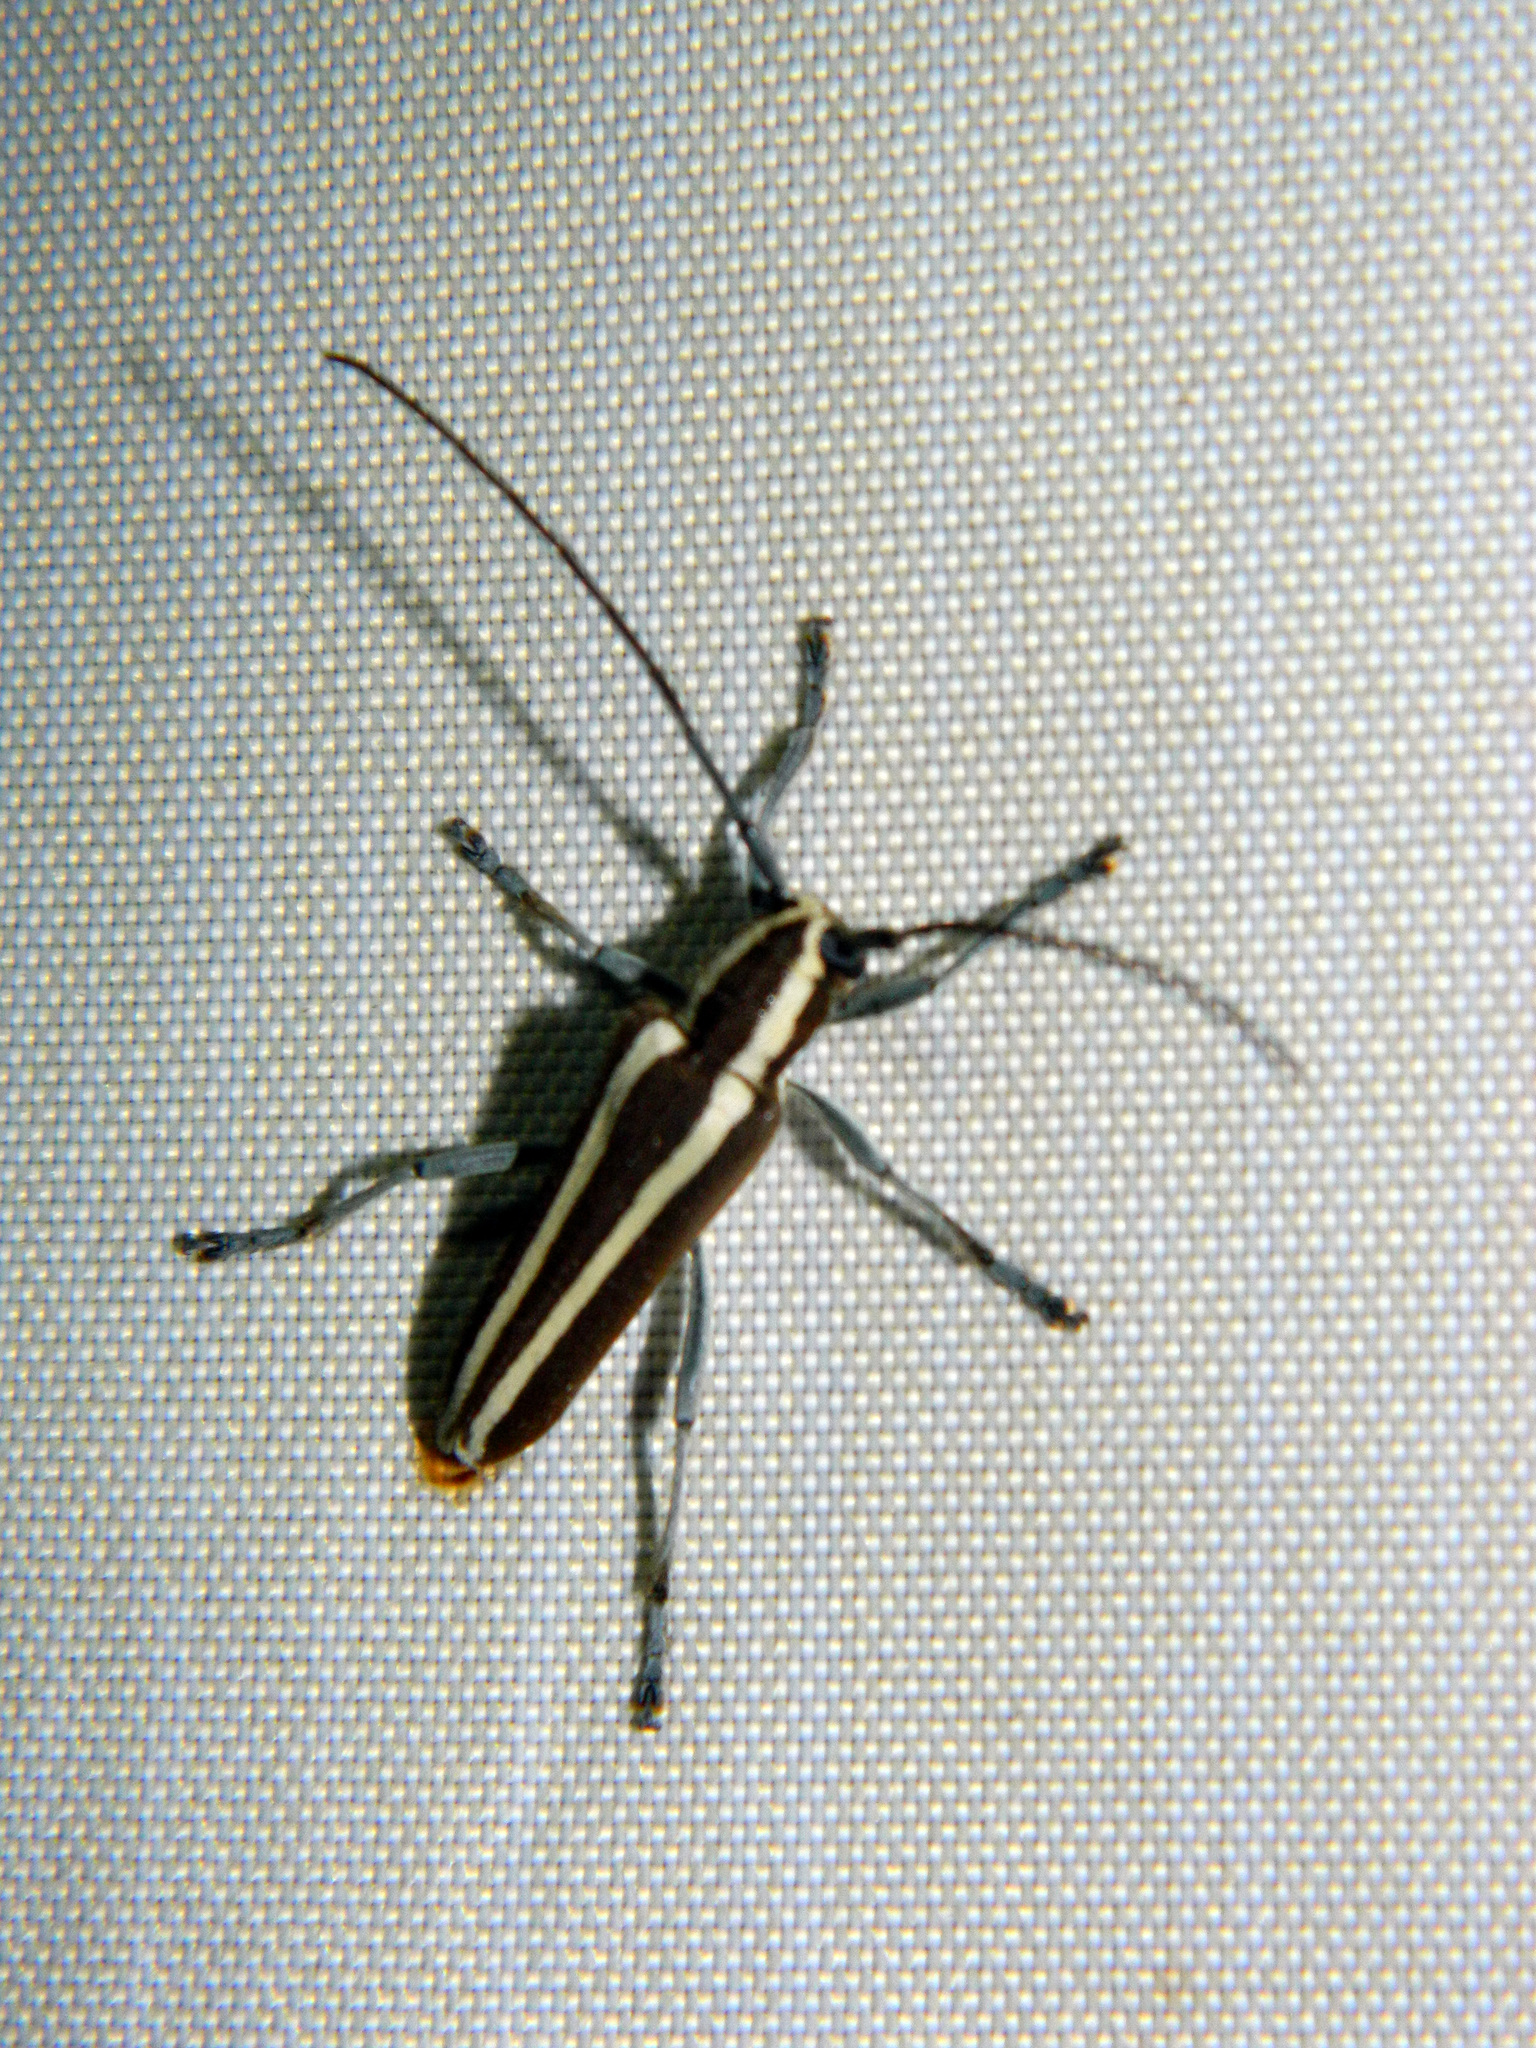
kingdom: Animalia
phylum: Arthropoda
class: Insecta
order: Coleoptera
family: Cerambycidae
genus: Saperda
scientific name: Saperda candida
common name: Round-headed borer
